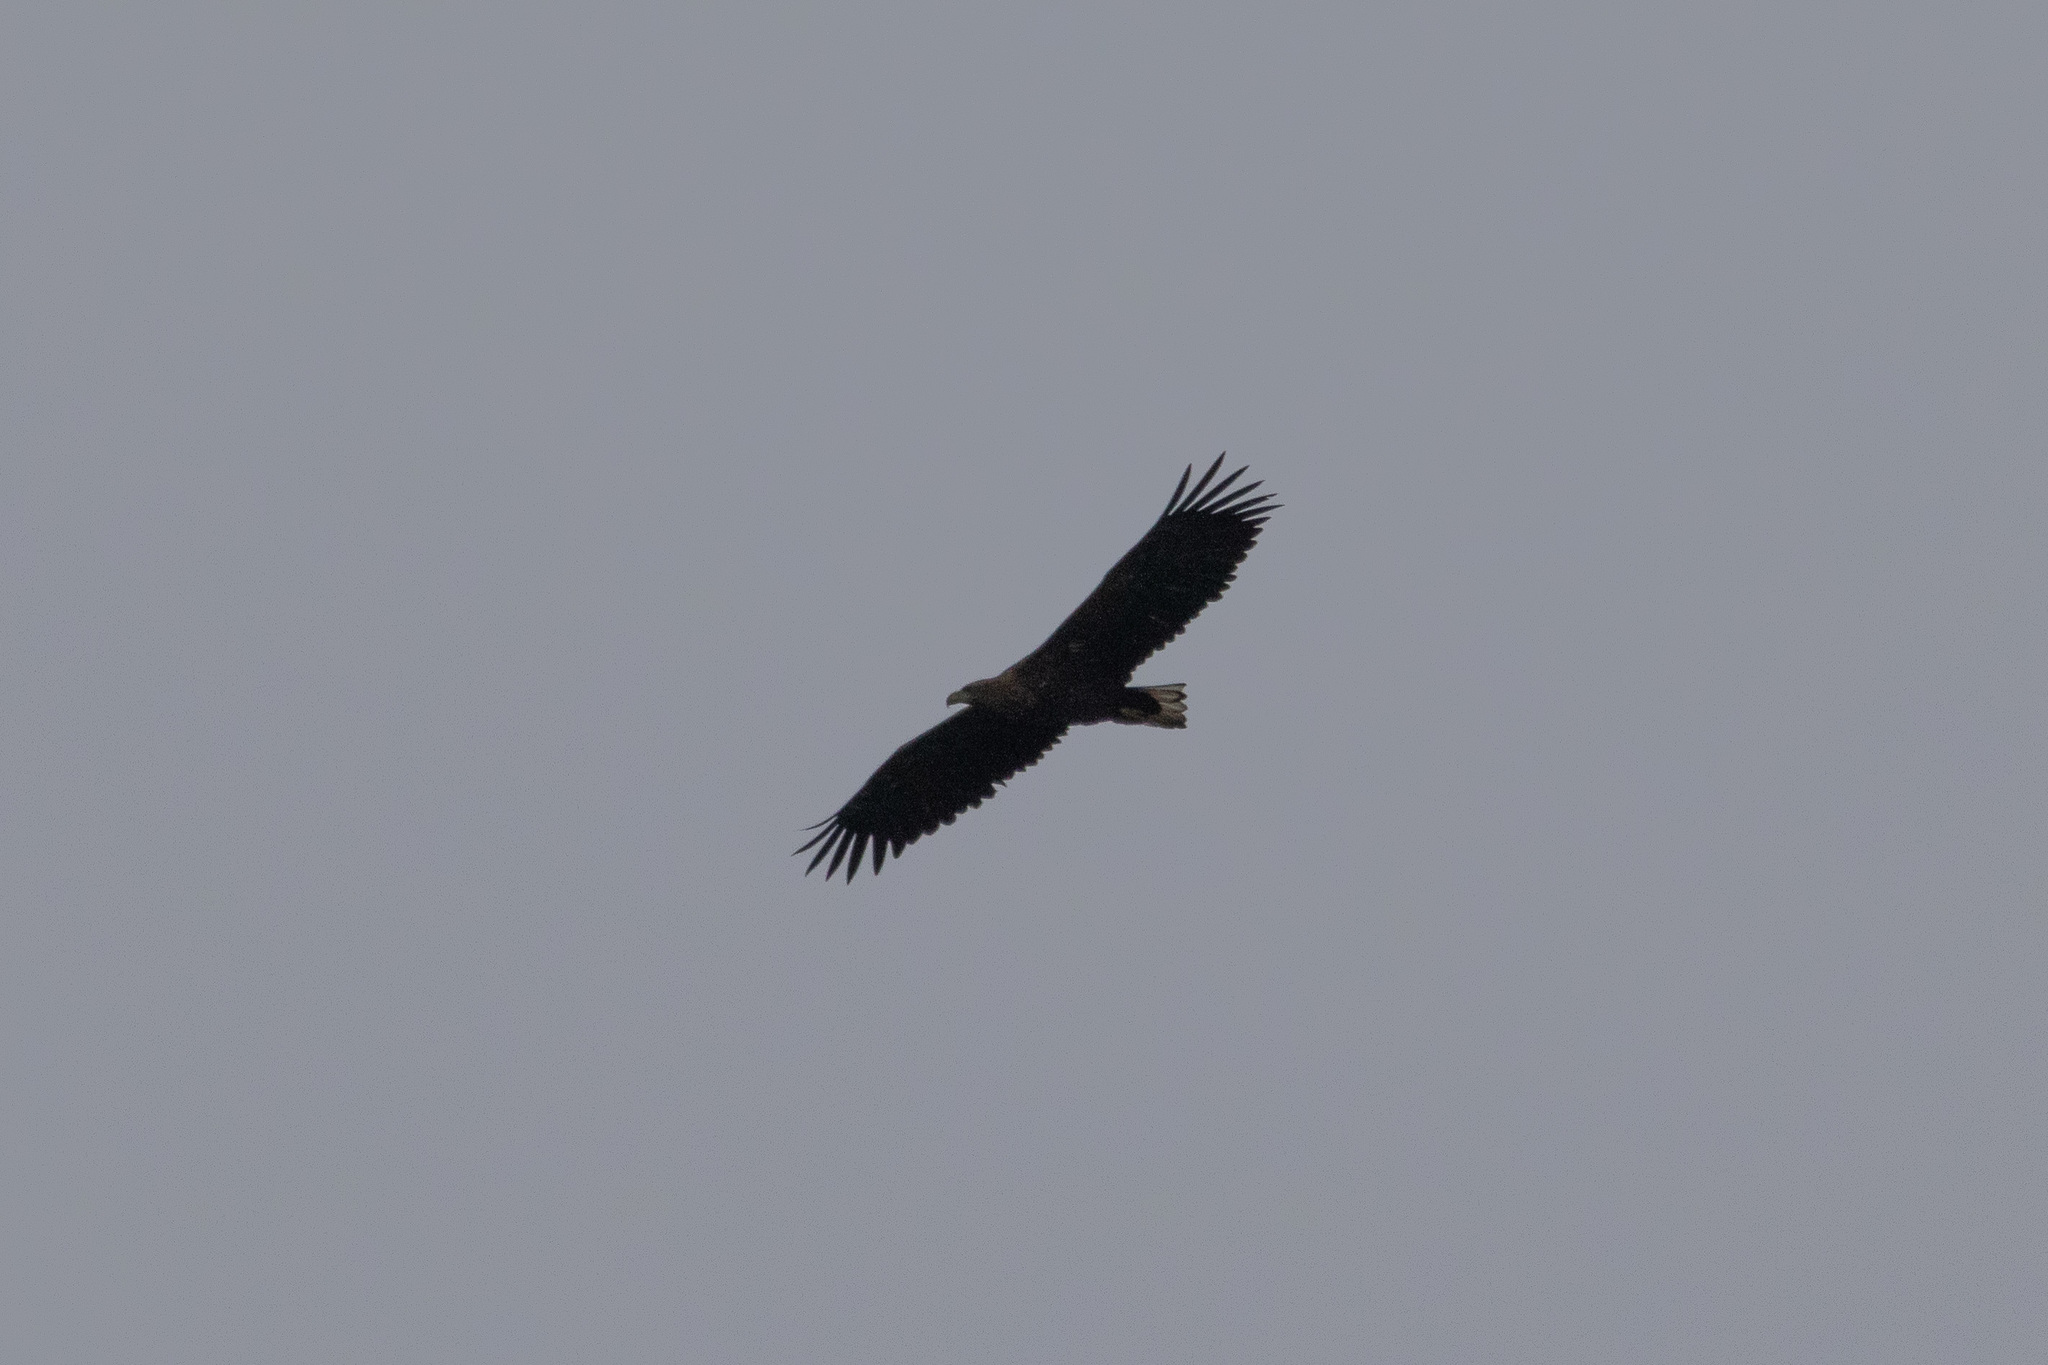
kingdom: Animalia
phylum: Chordata
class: Aves
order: Accipitriformes
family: Accipitridae
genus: Haliaeetus
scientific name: Haliaeetus albicilla
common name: White-tailed eagle
